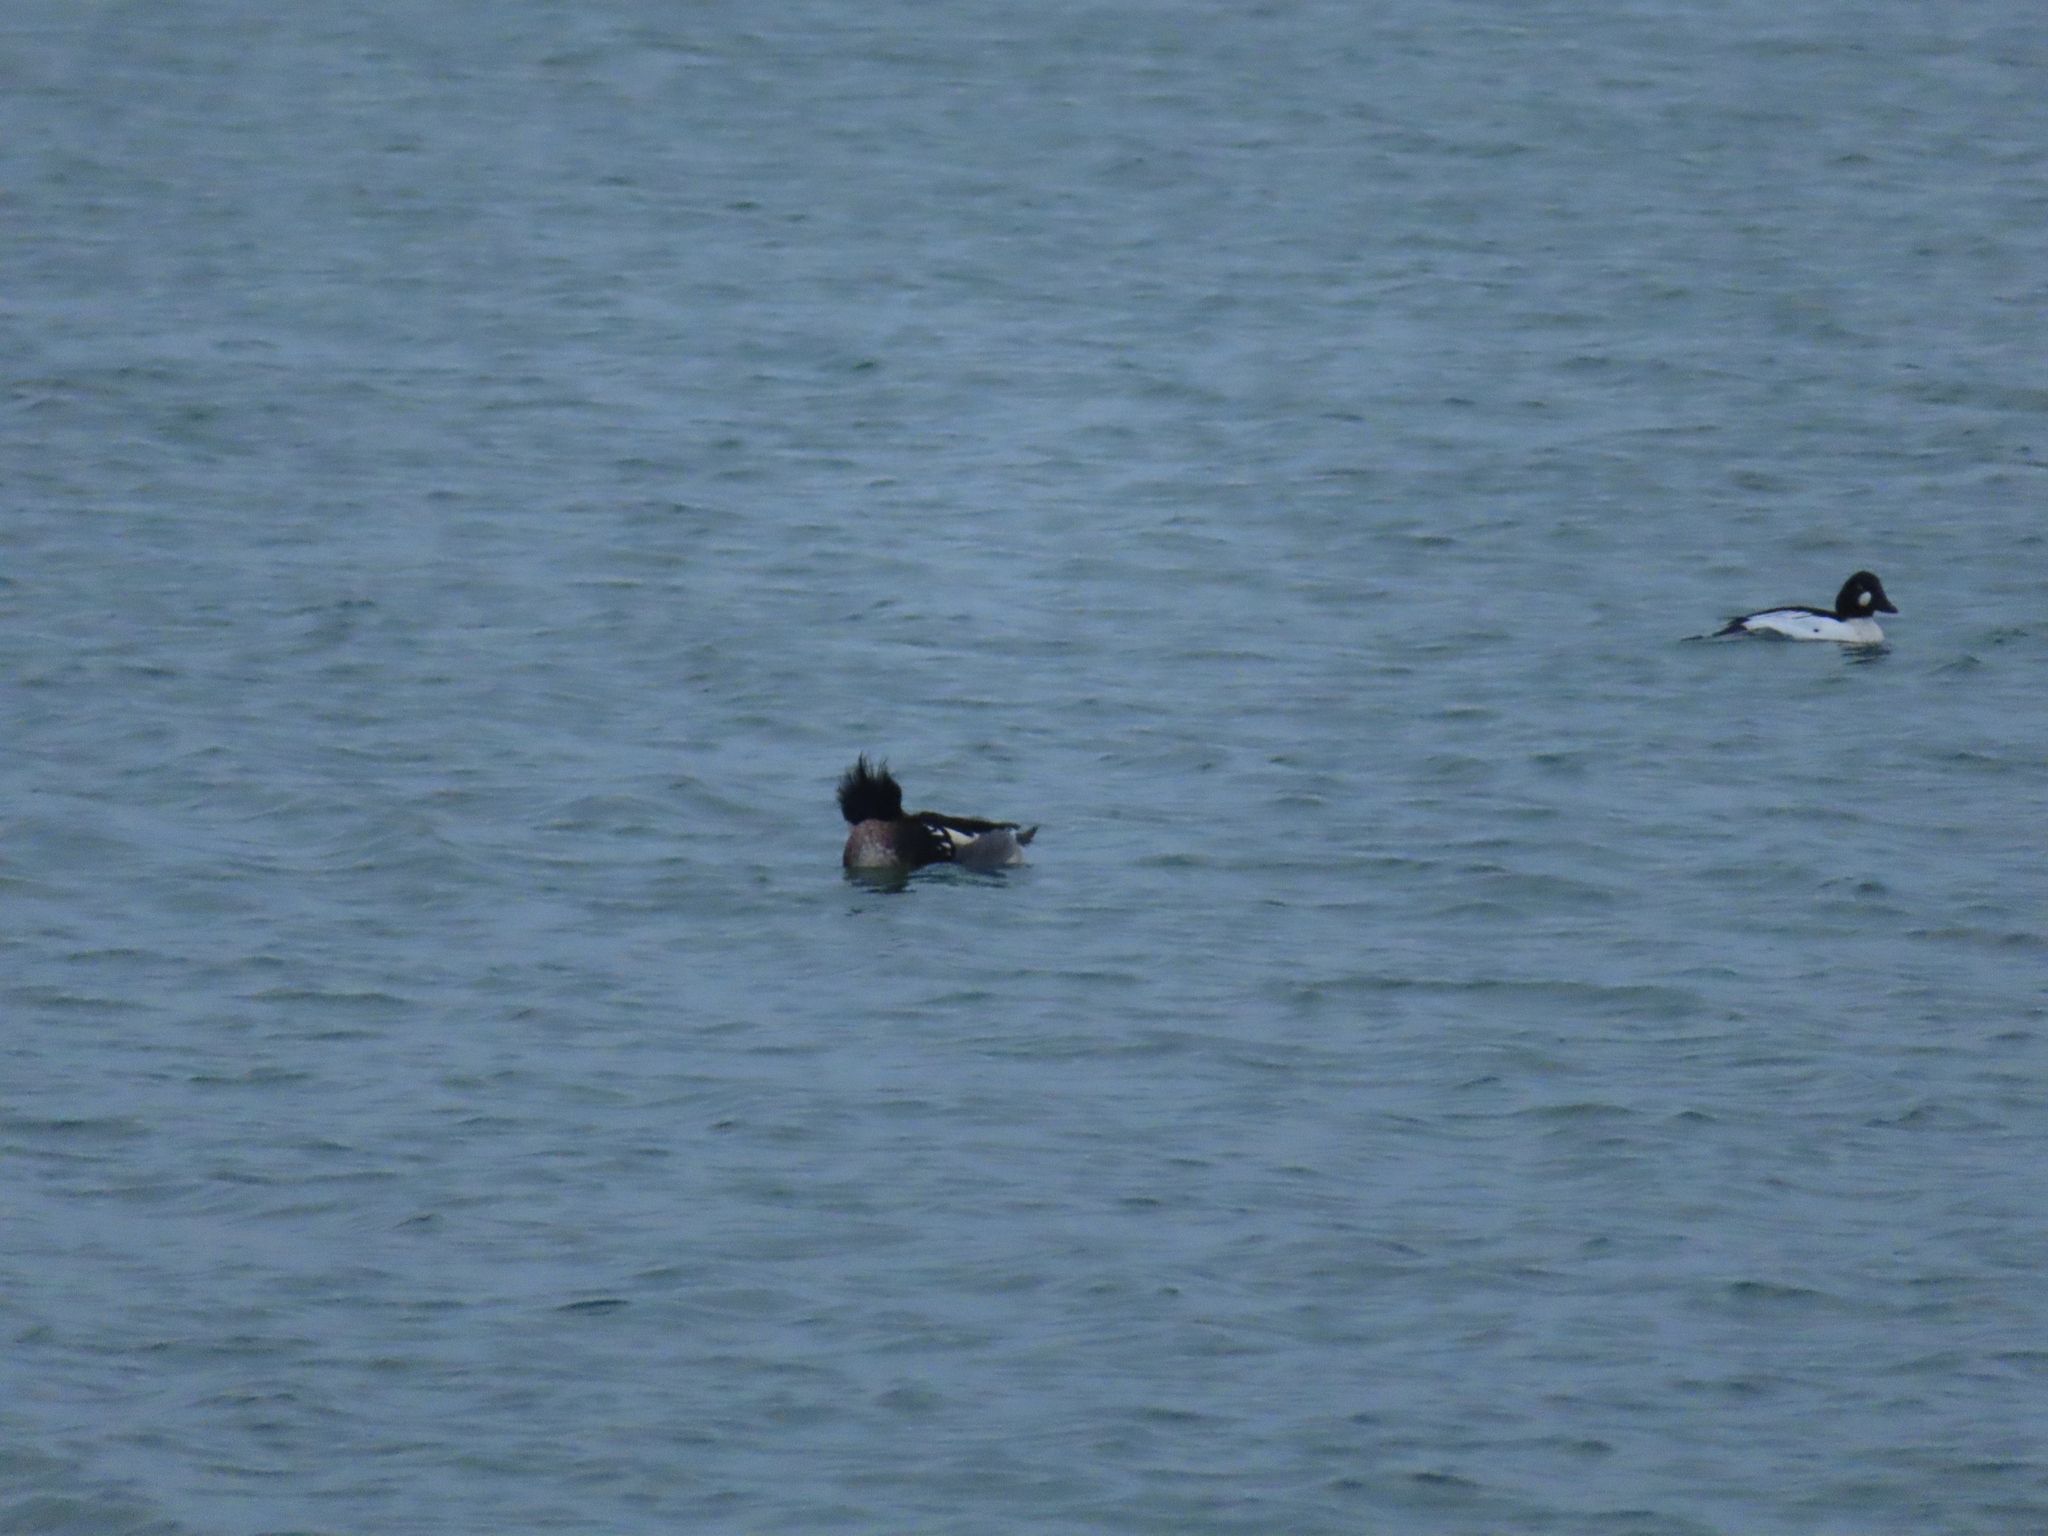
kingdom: Animalia
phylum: Chordata
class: Aves
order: Anseriformes
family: Anatidae
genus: Mergus
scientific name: Mergus serrator
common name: Red-breasted merganser
